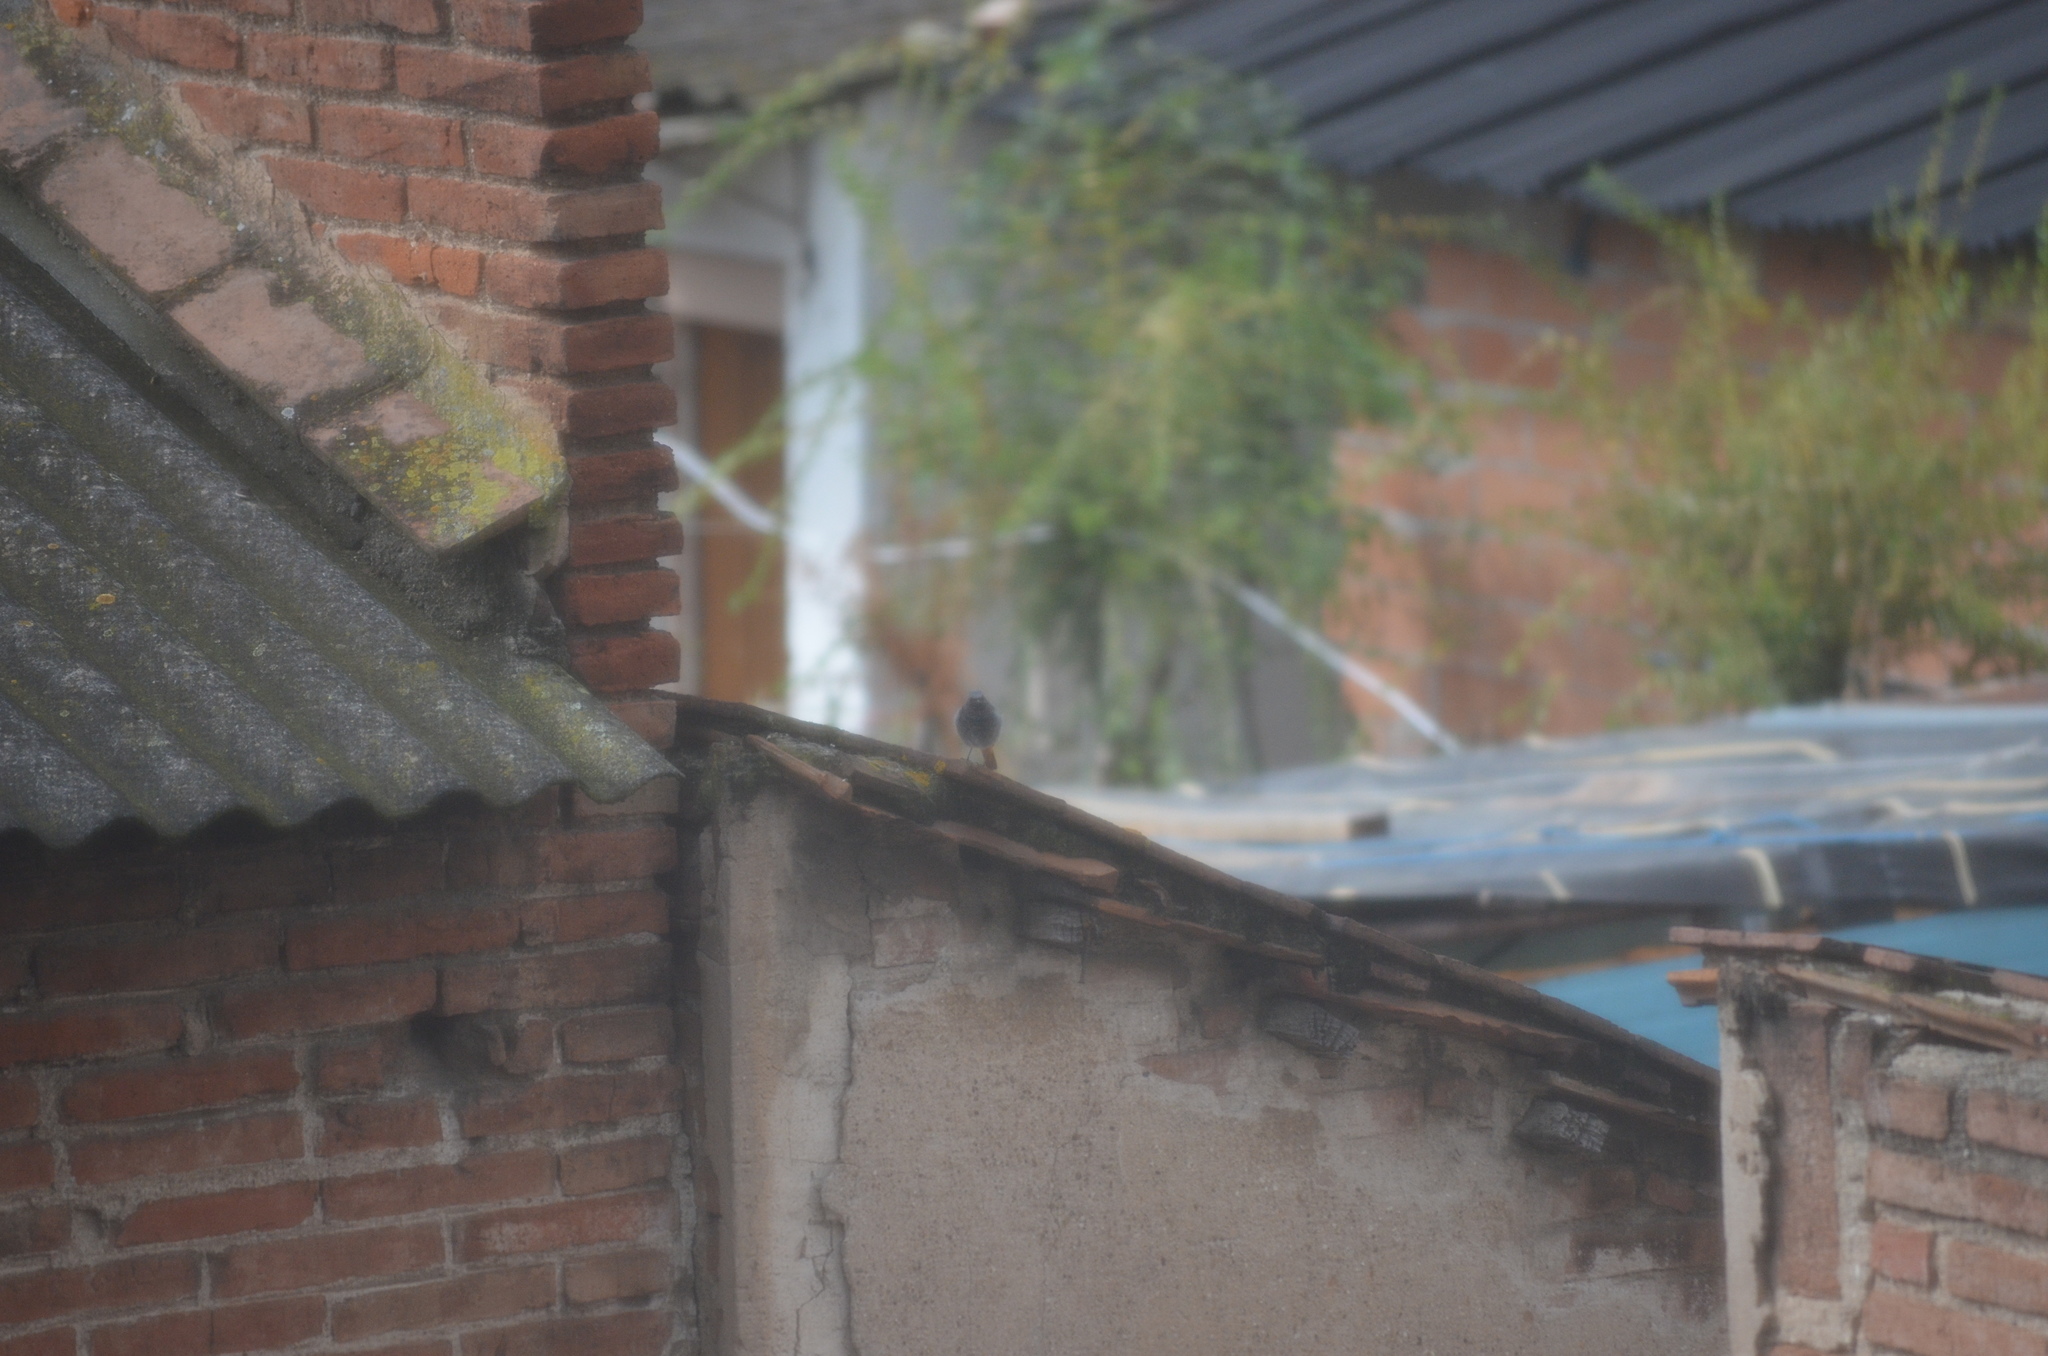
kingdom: Animalia
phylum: Chordata
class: Aves
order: Passeriformes
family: Muscicapidae
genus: Phoenicurus
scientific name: Phoenicurus ochruros
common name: Black redstart
